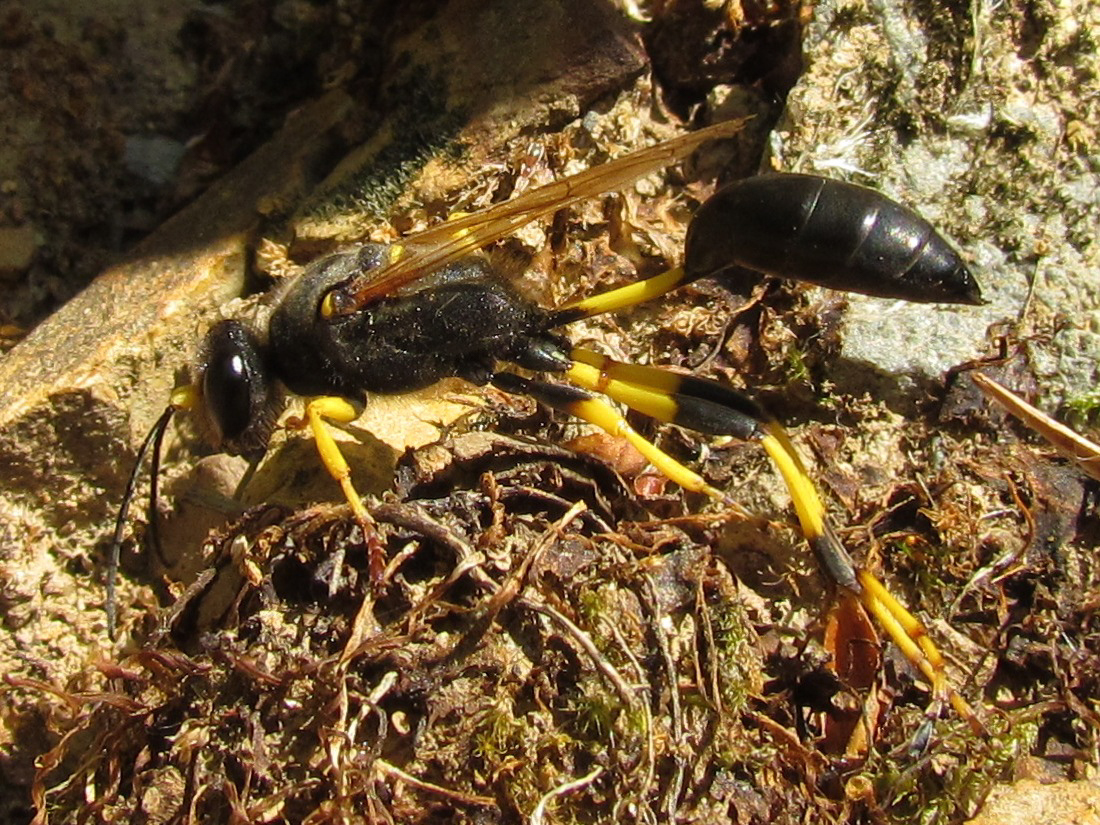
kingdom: Animalia
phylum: Arthropoda
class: Insecta
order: Hymenoptera
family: Sphecidae
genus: Sceliphron
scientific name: Sceliphron destillatorium
